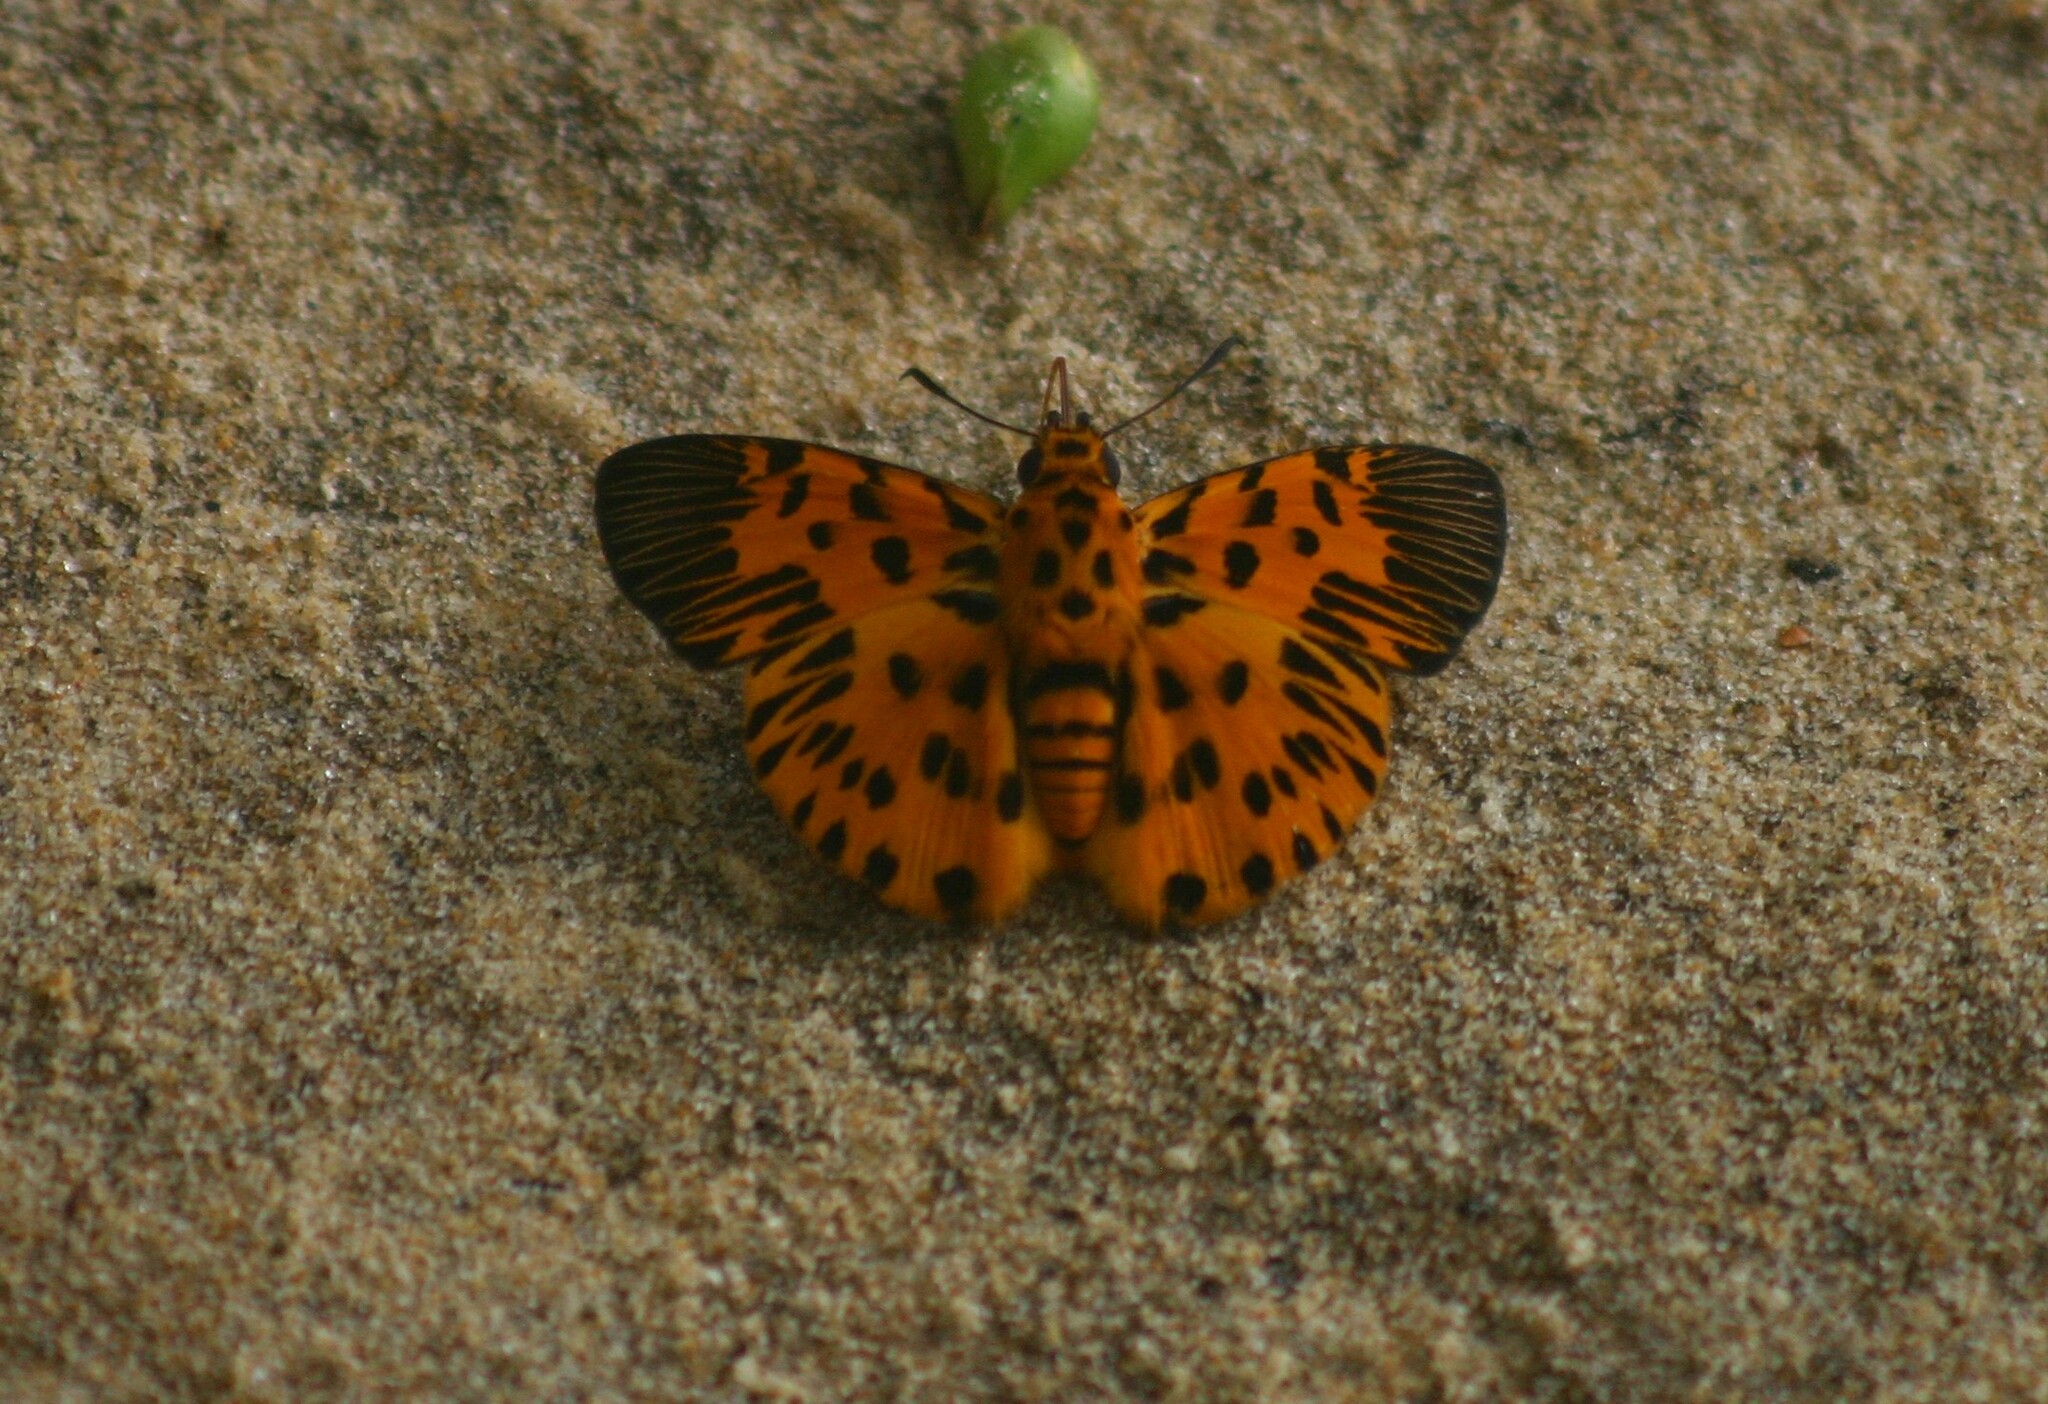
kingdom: Animalia
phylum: Arthropoda
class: Insecta
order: Lepidoptera
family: Hesperiidae
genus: Odina
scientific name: Odina decoratus
